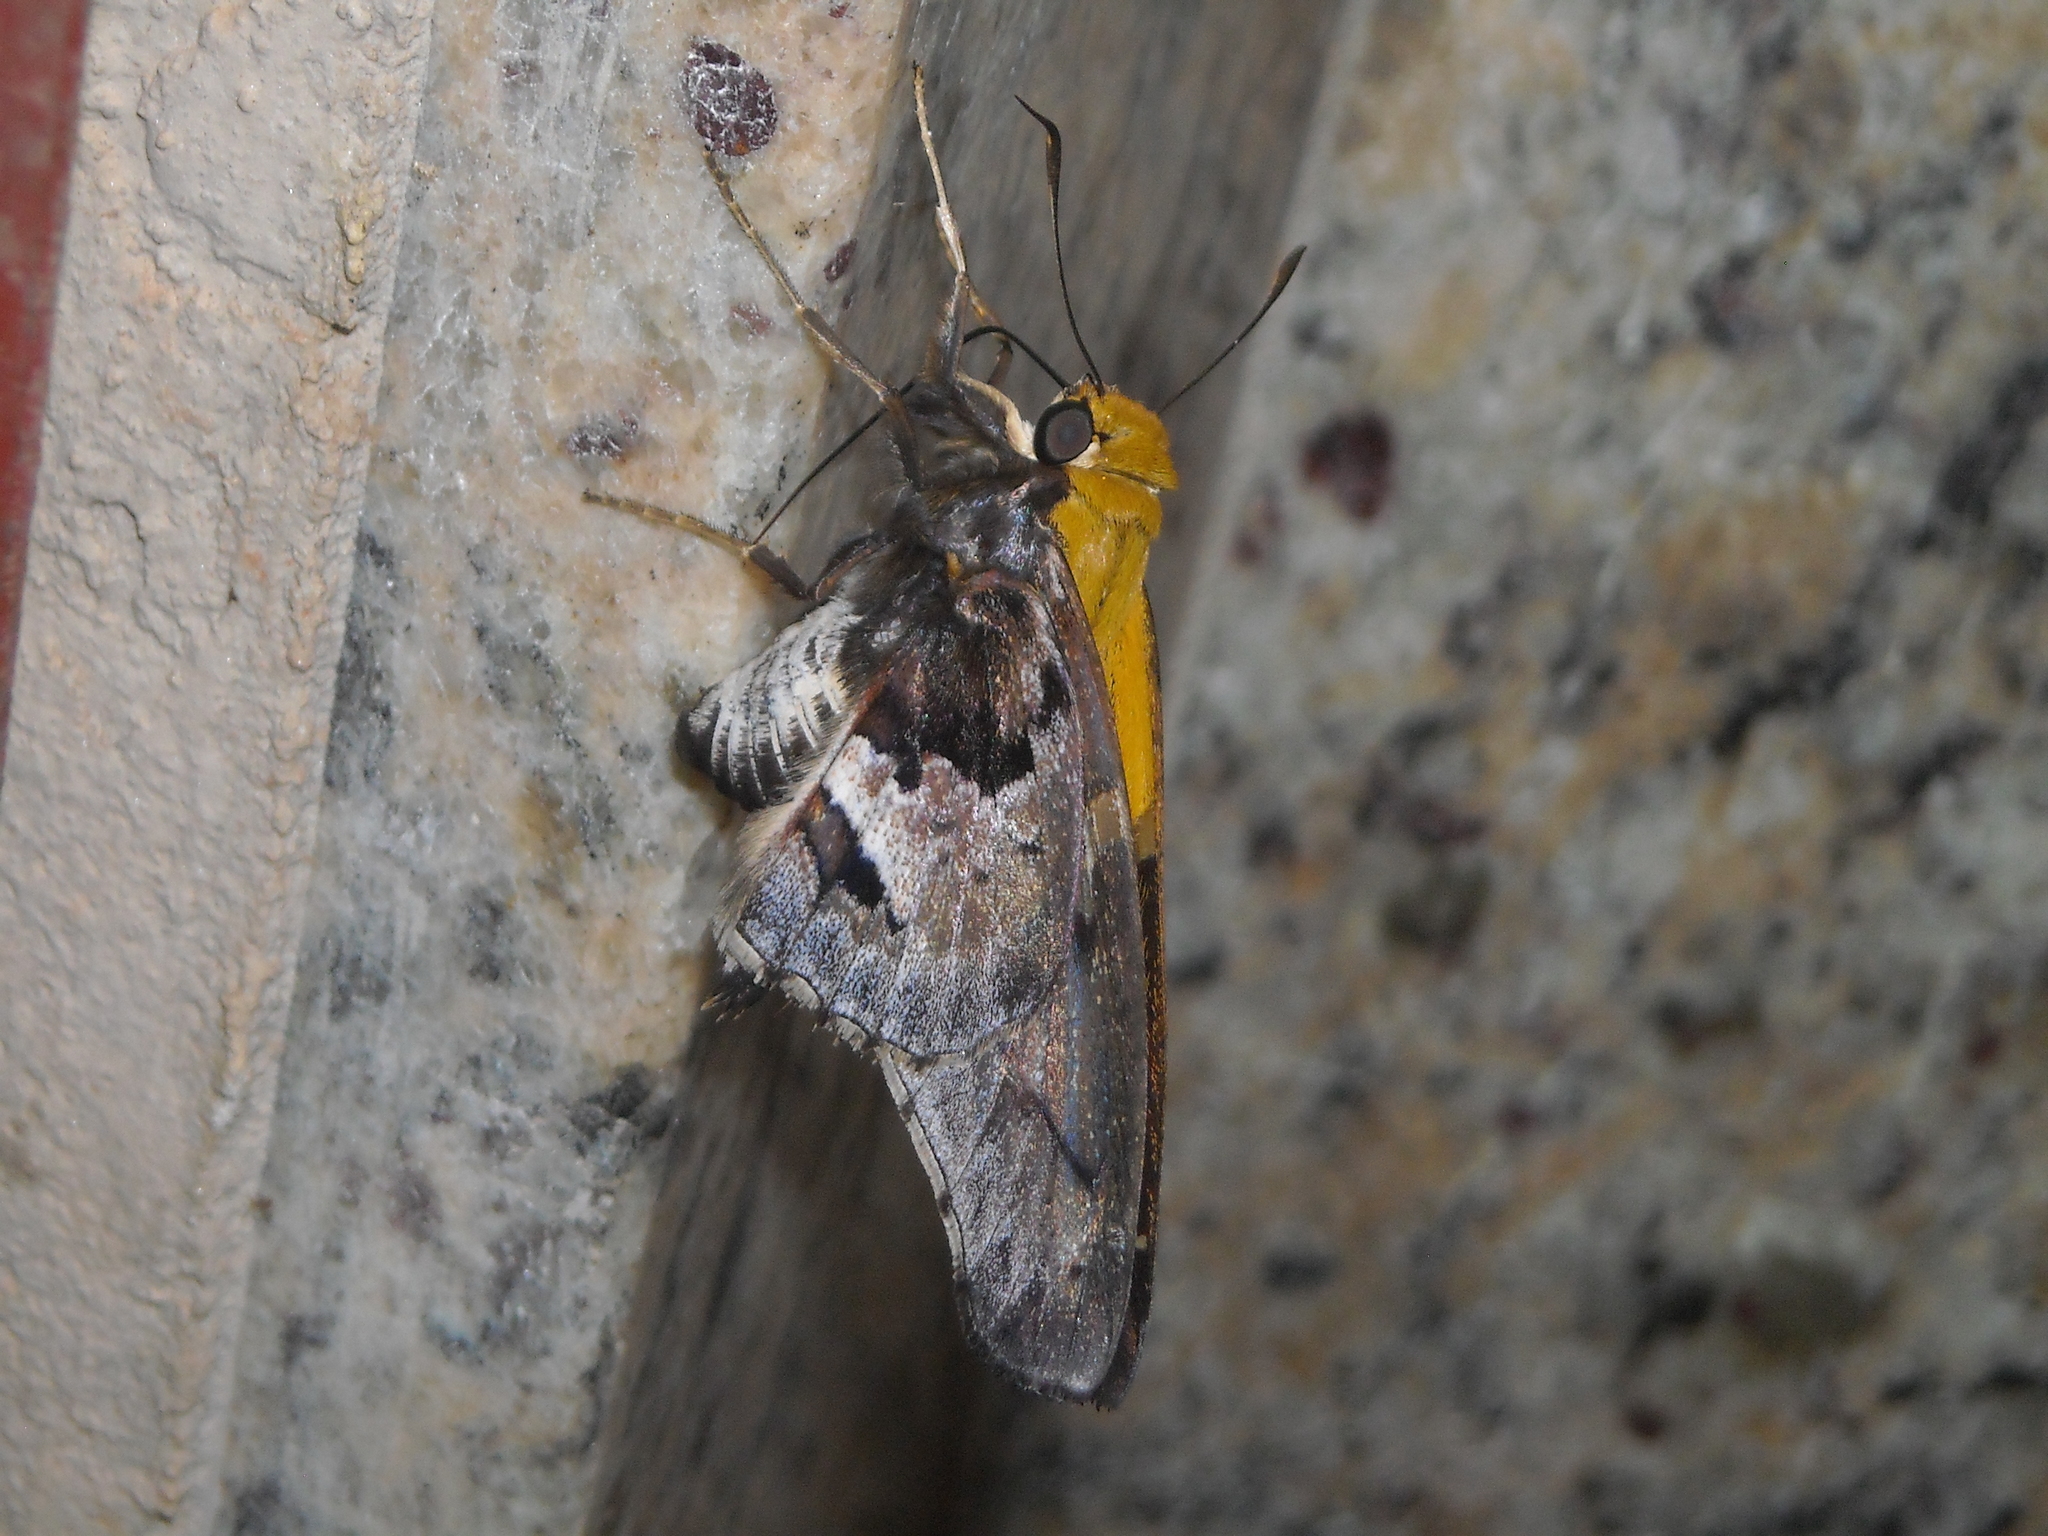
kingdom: Animalia
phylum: Arthropoda
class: Insecta
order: Lepidoptera
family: Hesperiidae
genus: Proteides
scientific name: Proteides mercurius
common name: Mercurial skipper
